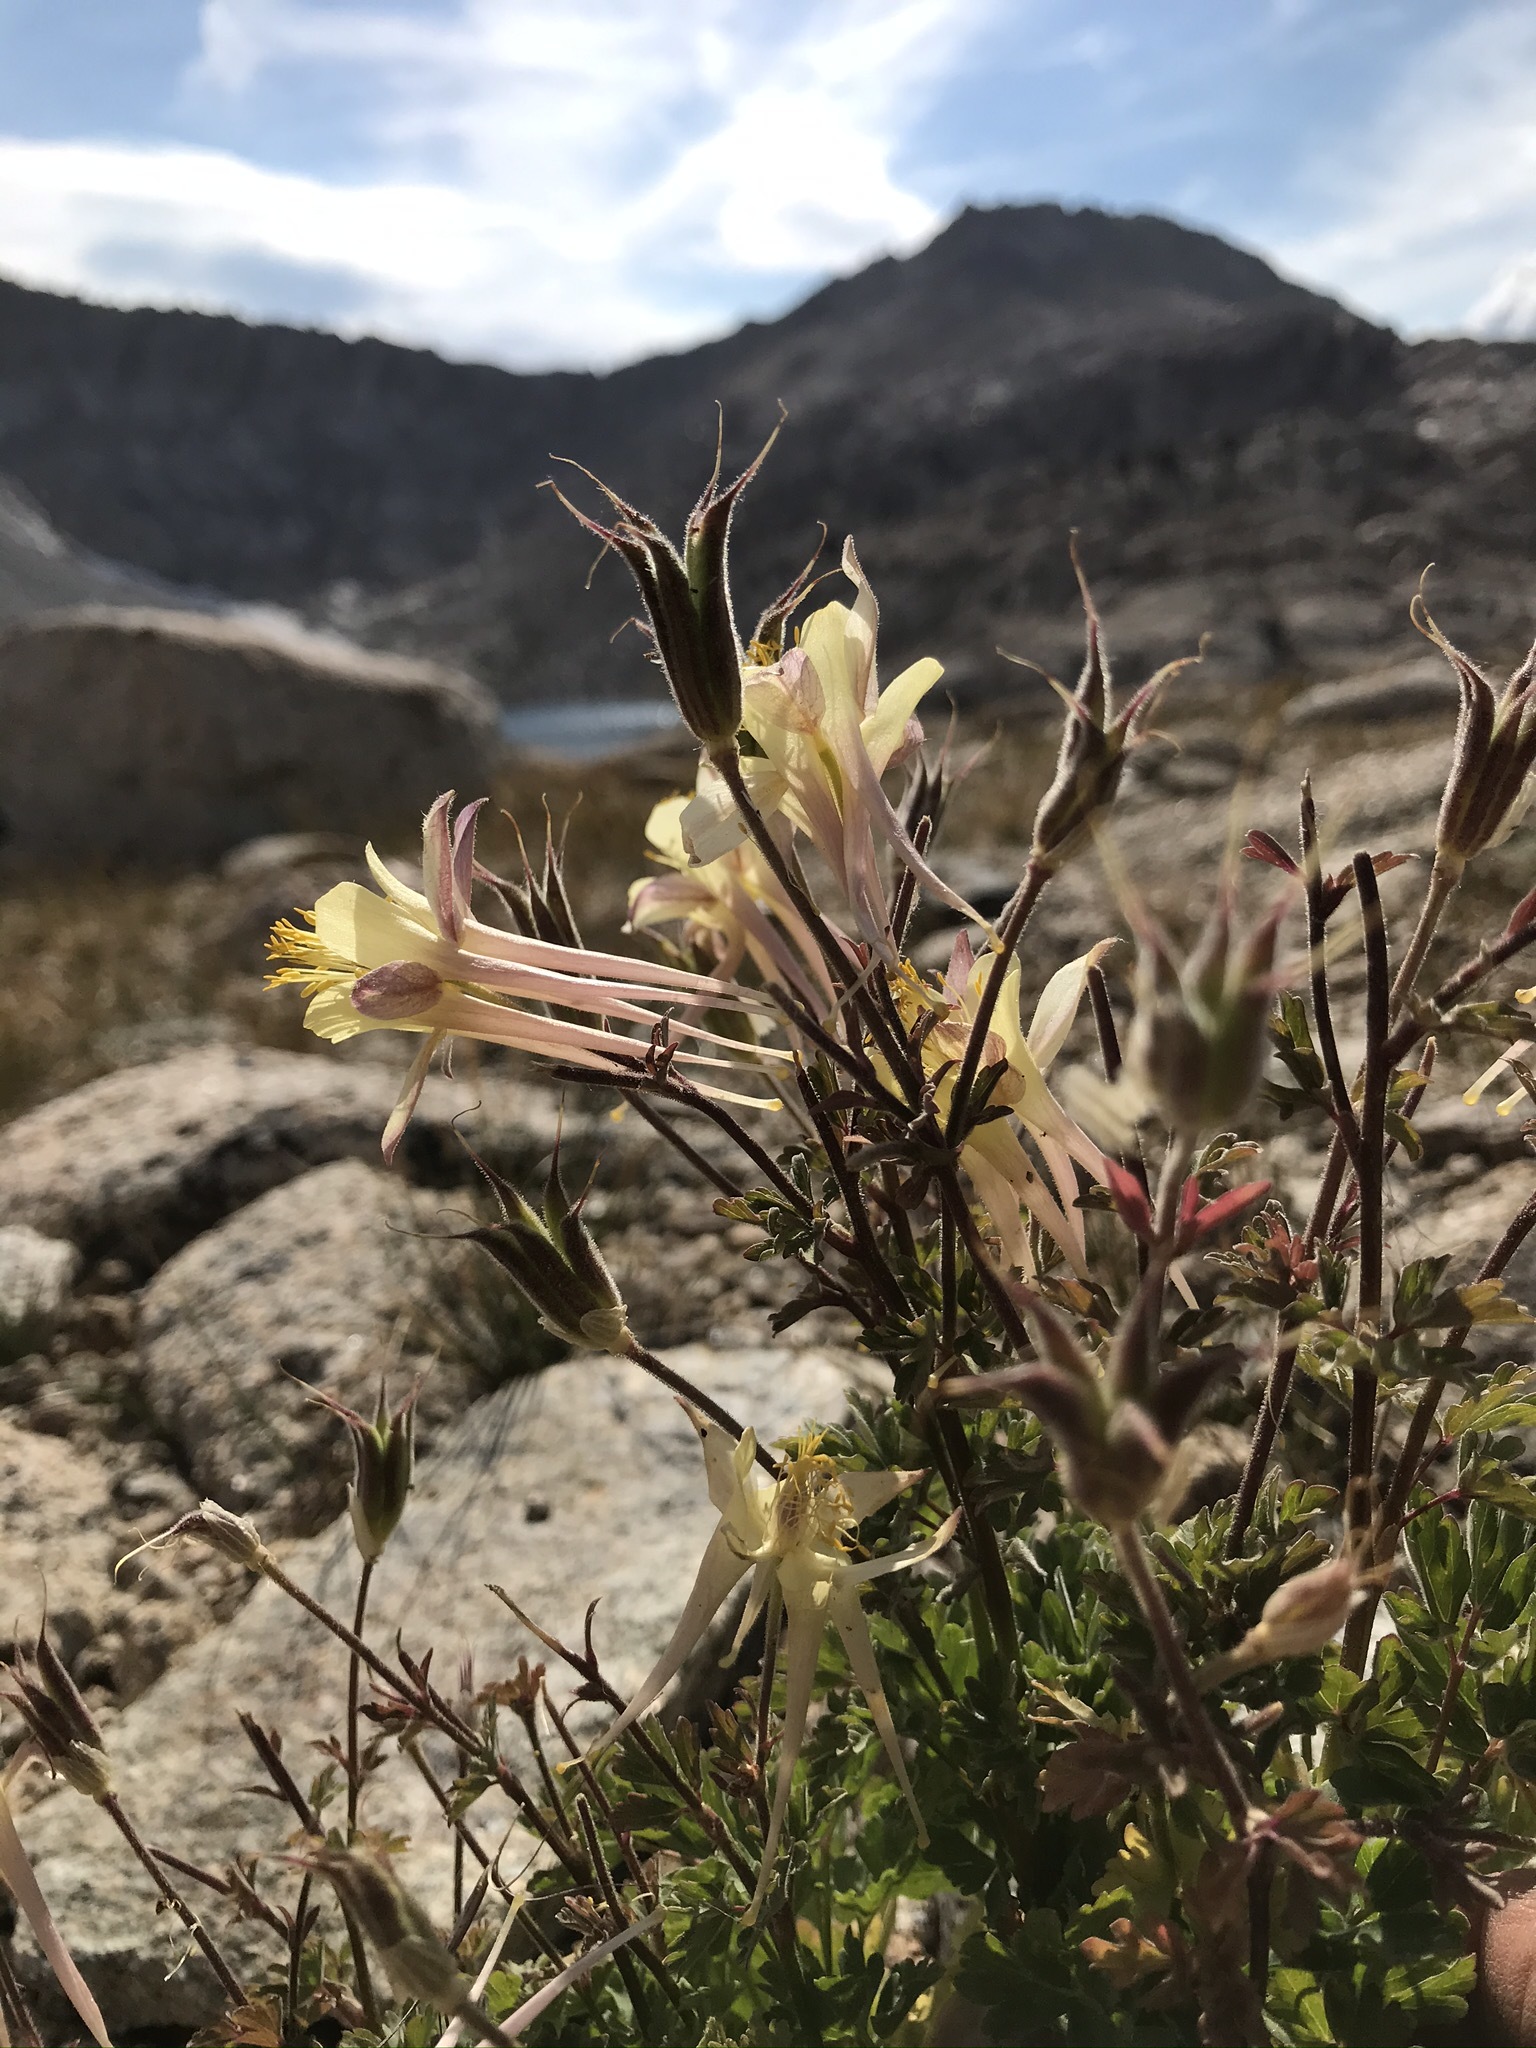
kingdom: Plantae
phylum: Tracheophyta
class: Magnoliopsida
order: Ranunculales
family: Ranunculaceae
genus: Aquilegia
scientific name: Aquilegia pubescens
